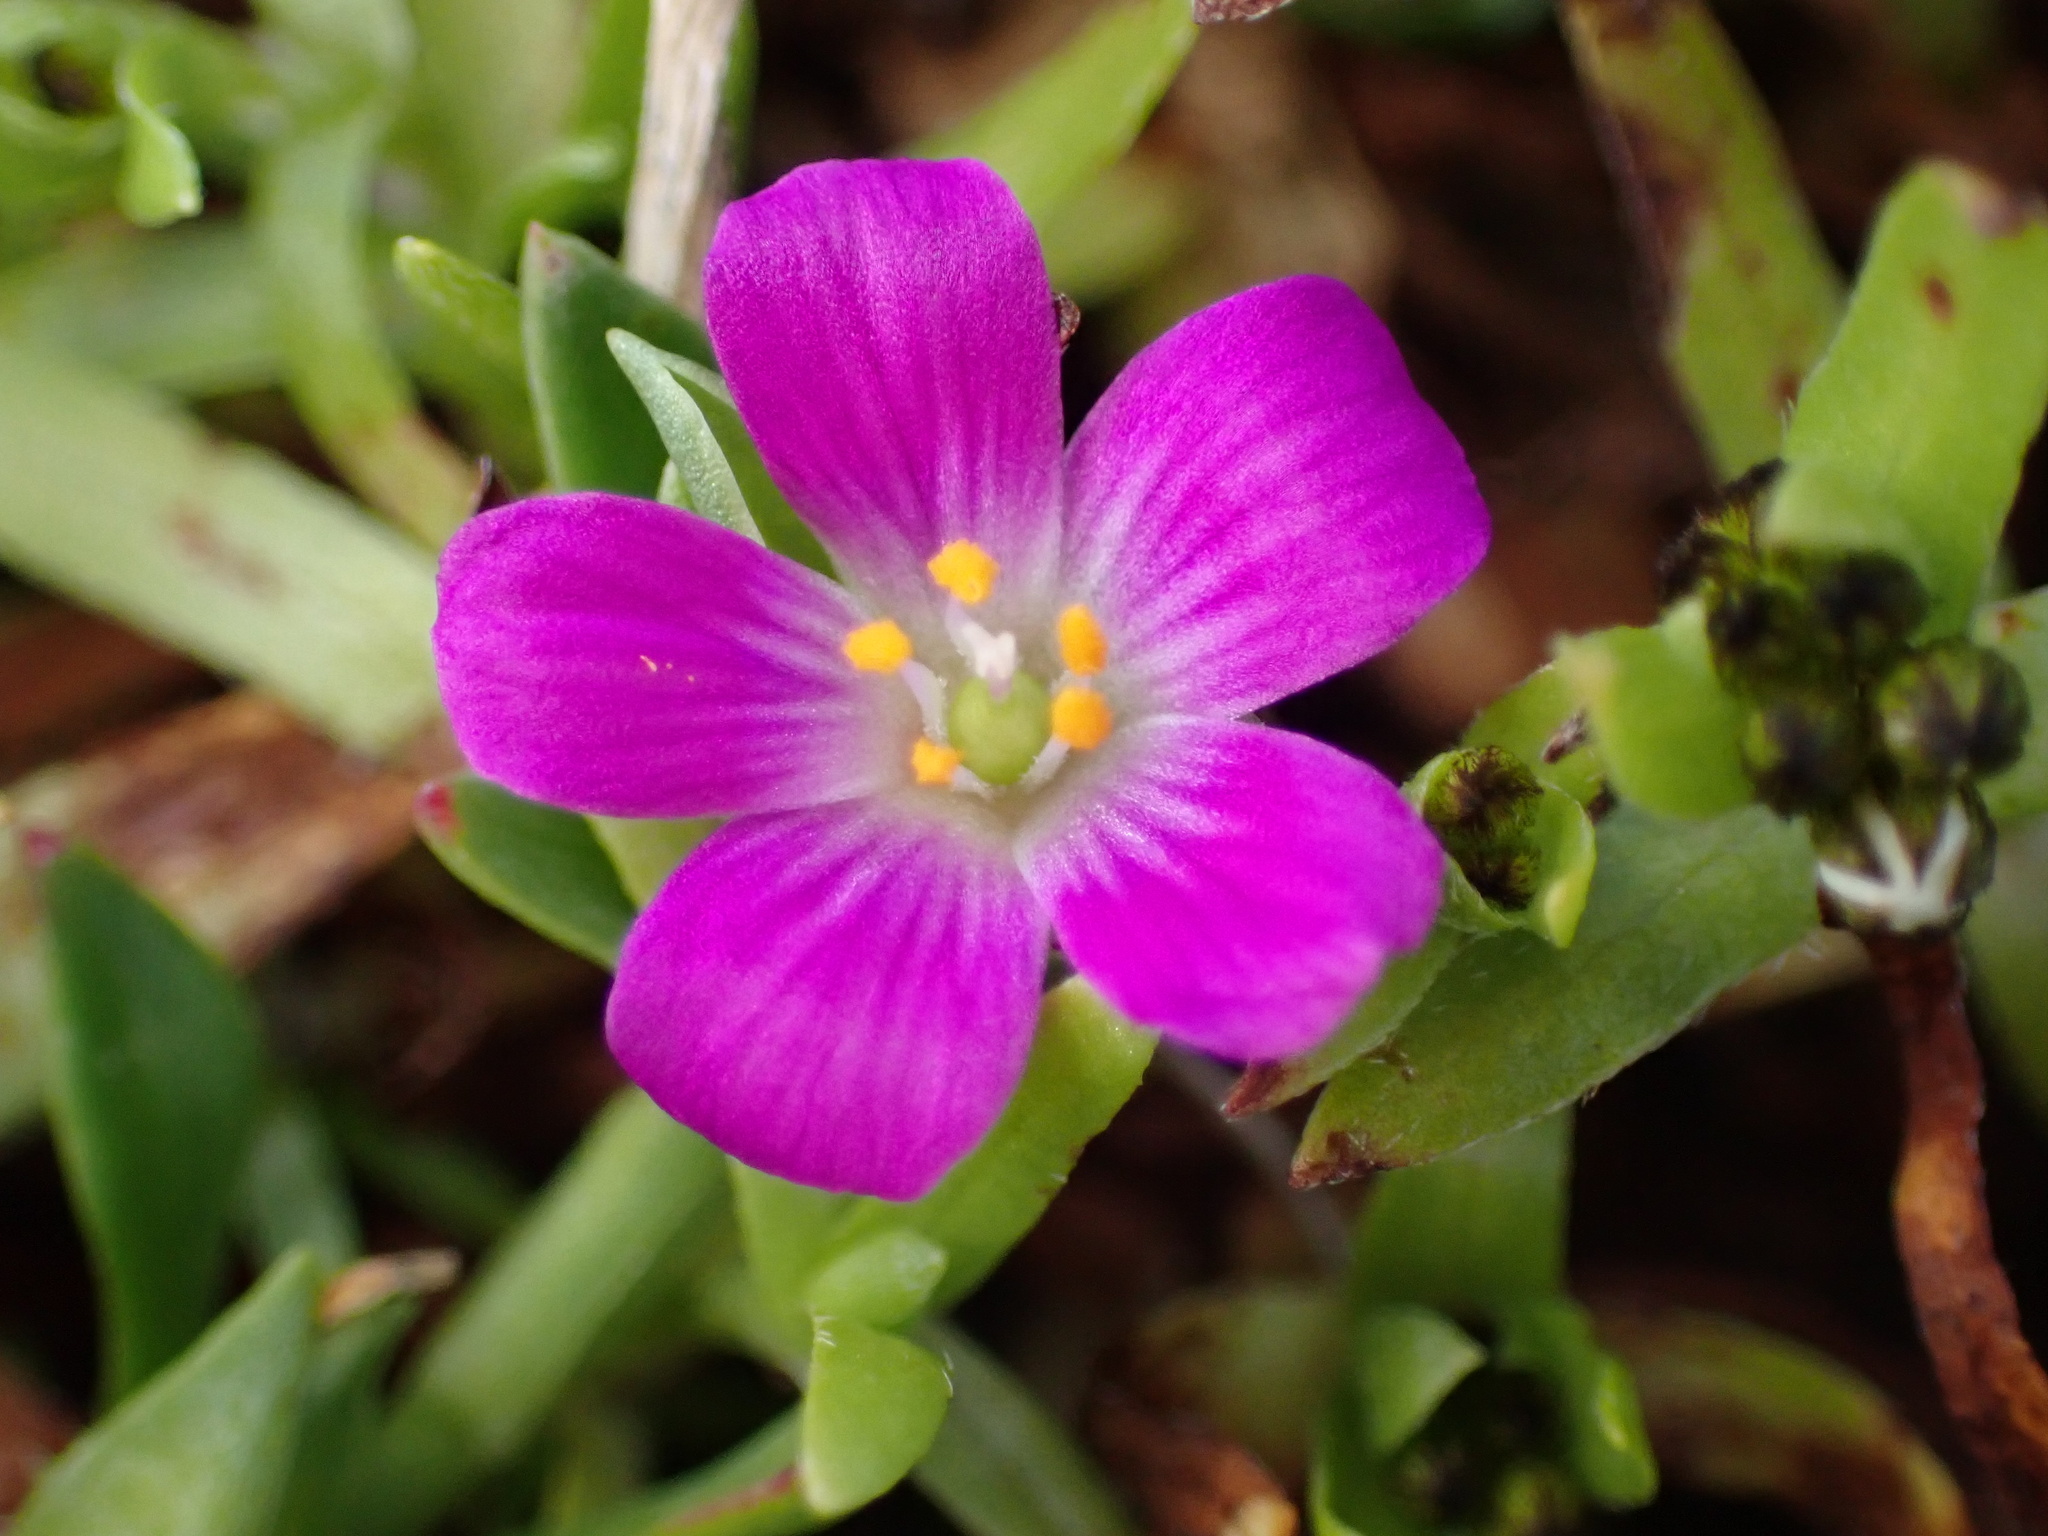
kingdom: Plantae
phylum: Tracheophyta
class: Magnoliopsida
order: Caryophyllales
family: Montiaceae
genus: Calandrinia
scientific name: Calandrinia menziesii
